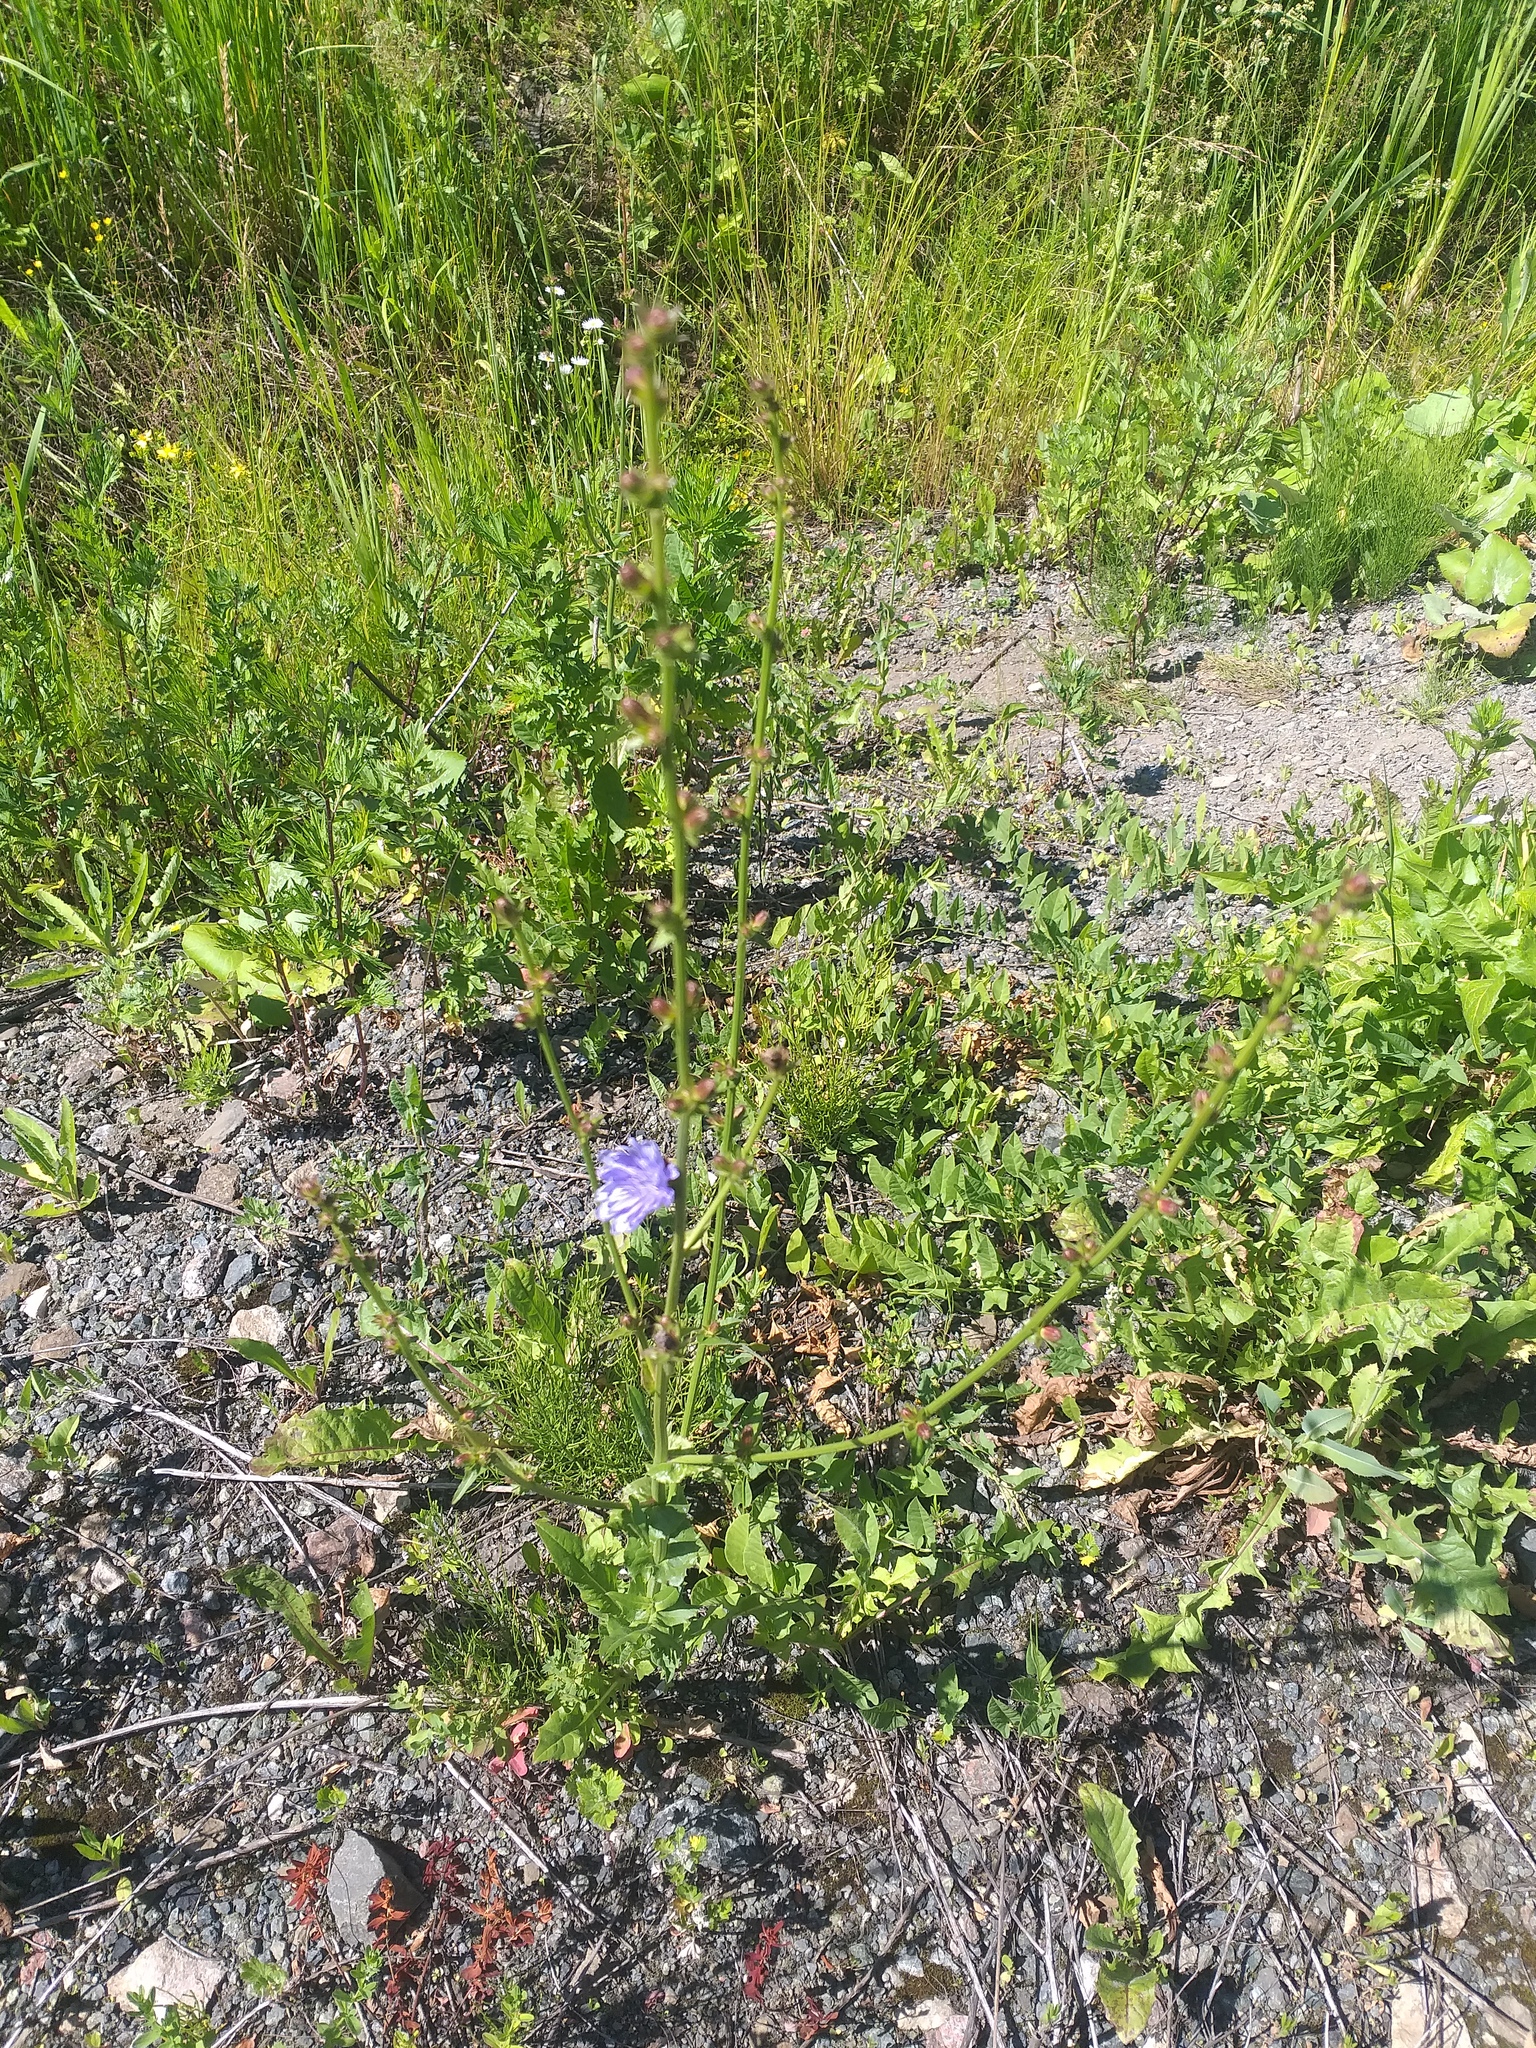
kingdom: Plantae
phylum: Tracheophyta
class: Magnoliopsida
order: Asterales
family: Asteraceae
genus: Cichorium
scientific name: Cichorium intybus
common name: Chicory
